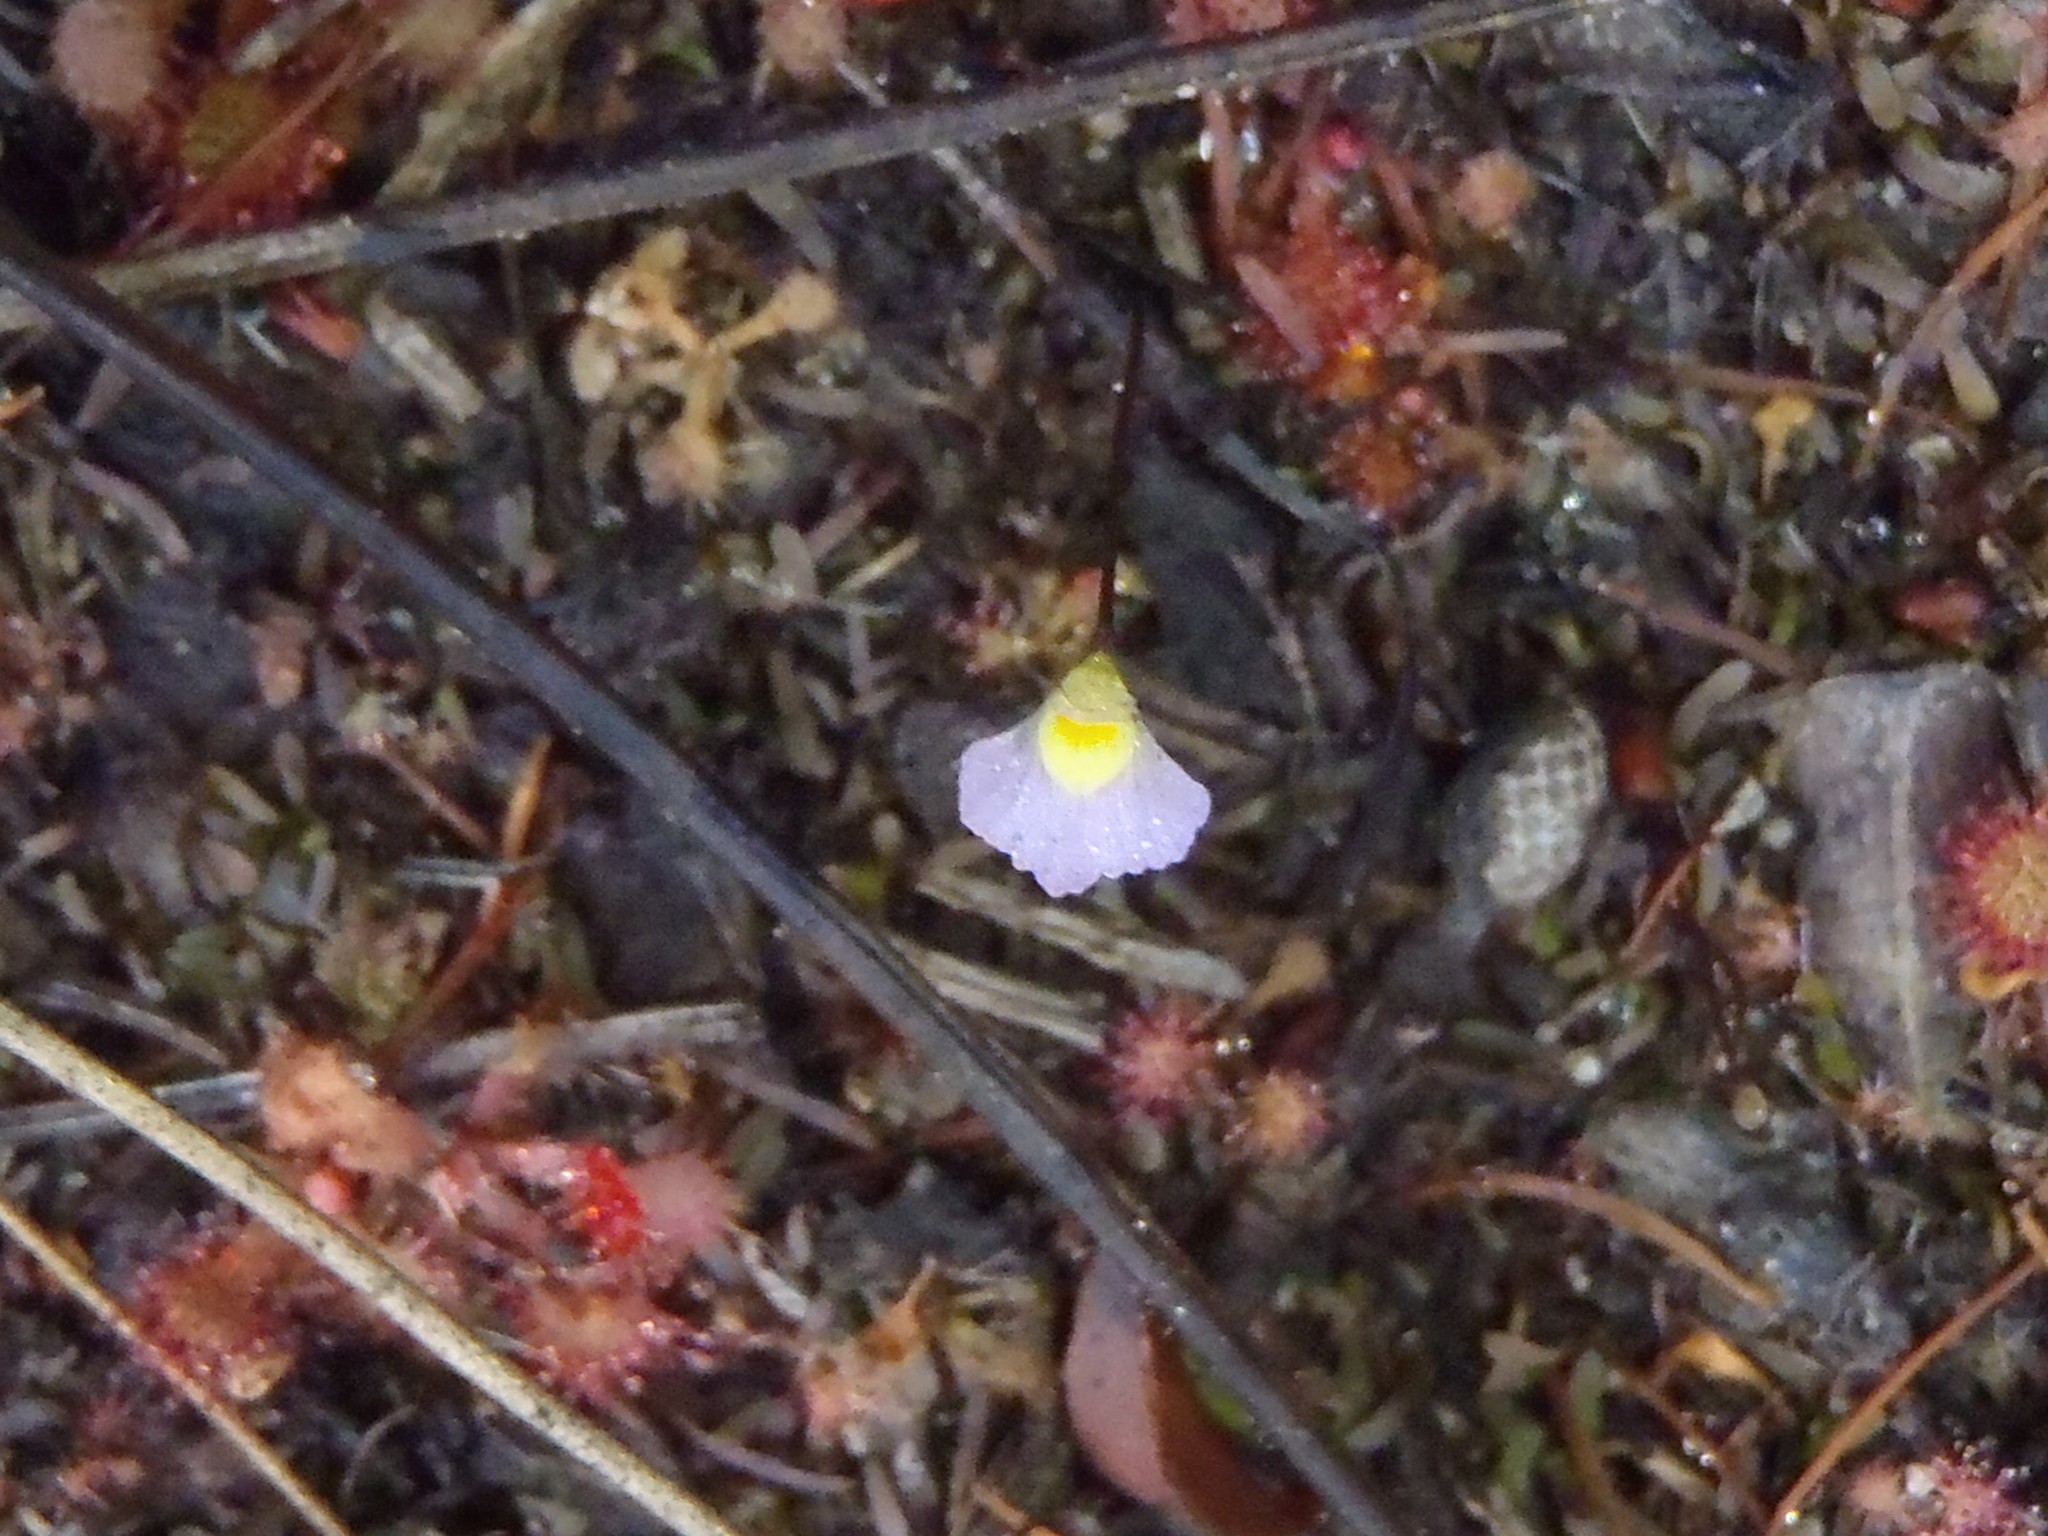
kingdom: Plantae
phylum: Tracheophyta
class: Magnoliopsida
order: Lamiales
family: Lentibulariaceae
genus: Utricularia
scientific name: Utricularia bisquamata
